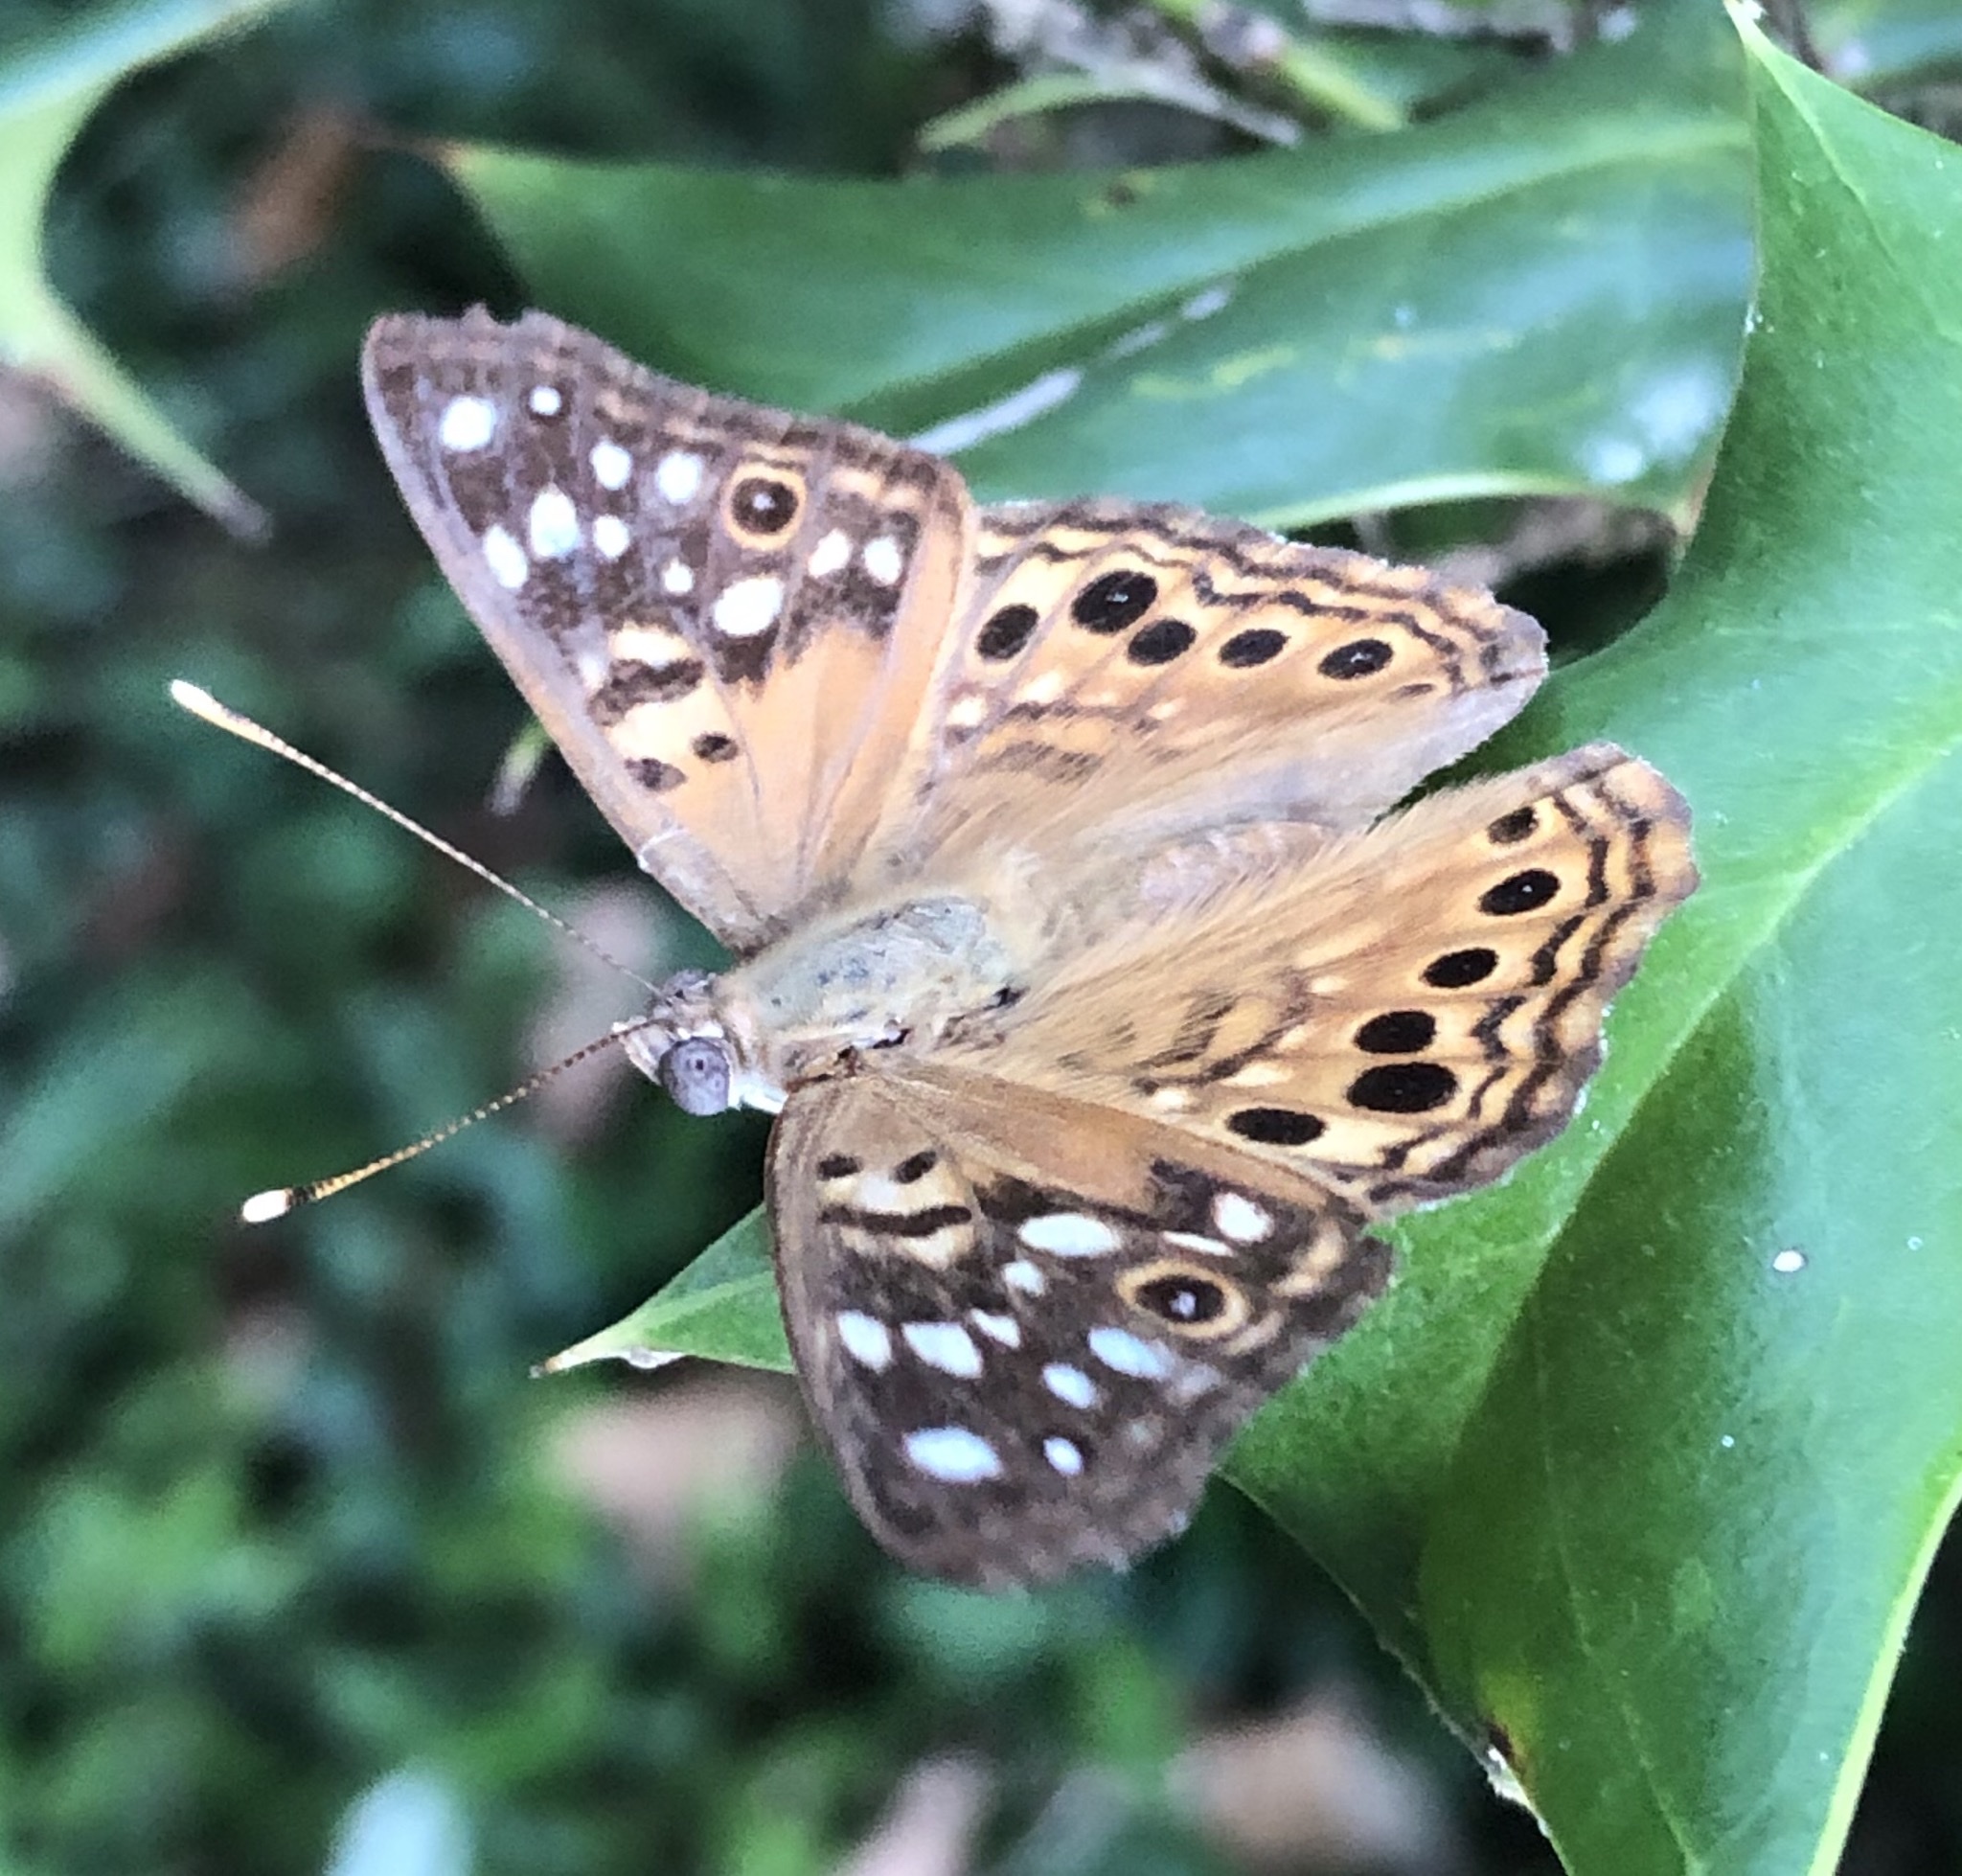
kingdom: Animalia
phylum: Arthropoda
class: Insecta
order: Lepidoptera
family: Nymphalidae
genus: Asterocampa
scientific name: Asterocampa celtis
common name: Hackberry emperor
